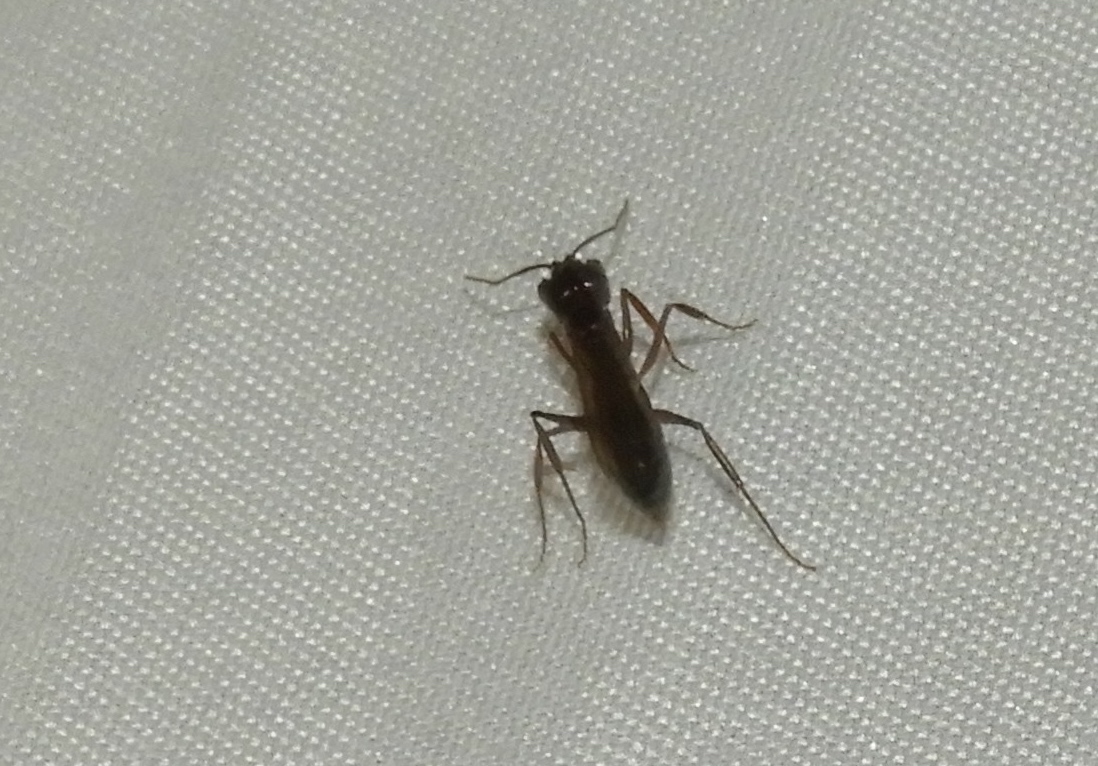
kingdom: Animalia
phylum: Arthropoda
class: Insecta
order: Hymenoptera
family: Formicidae
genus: Odontomachus
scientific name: Odontomachus
